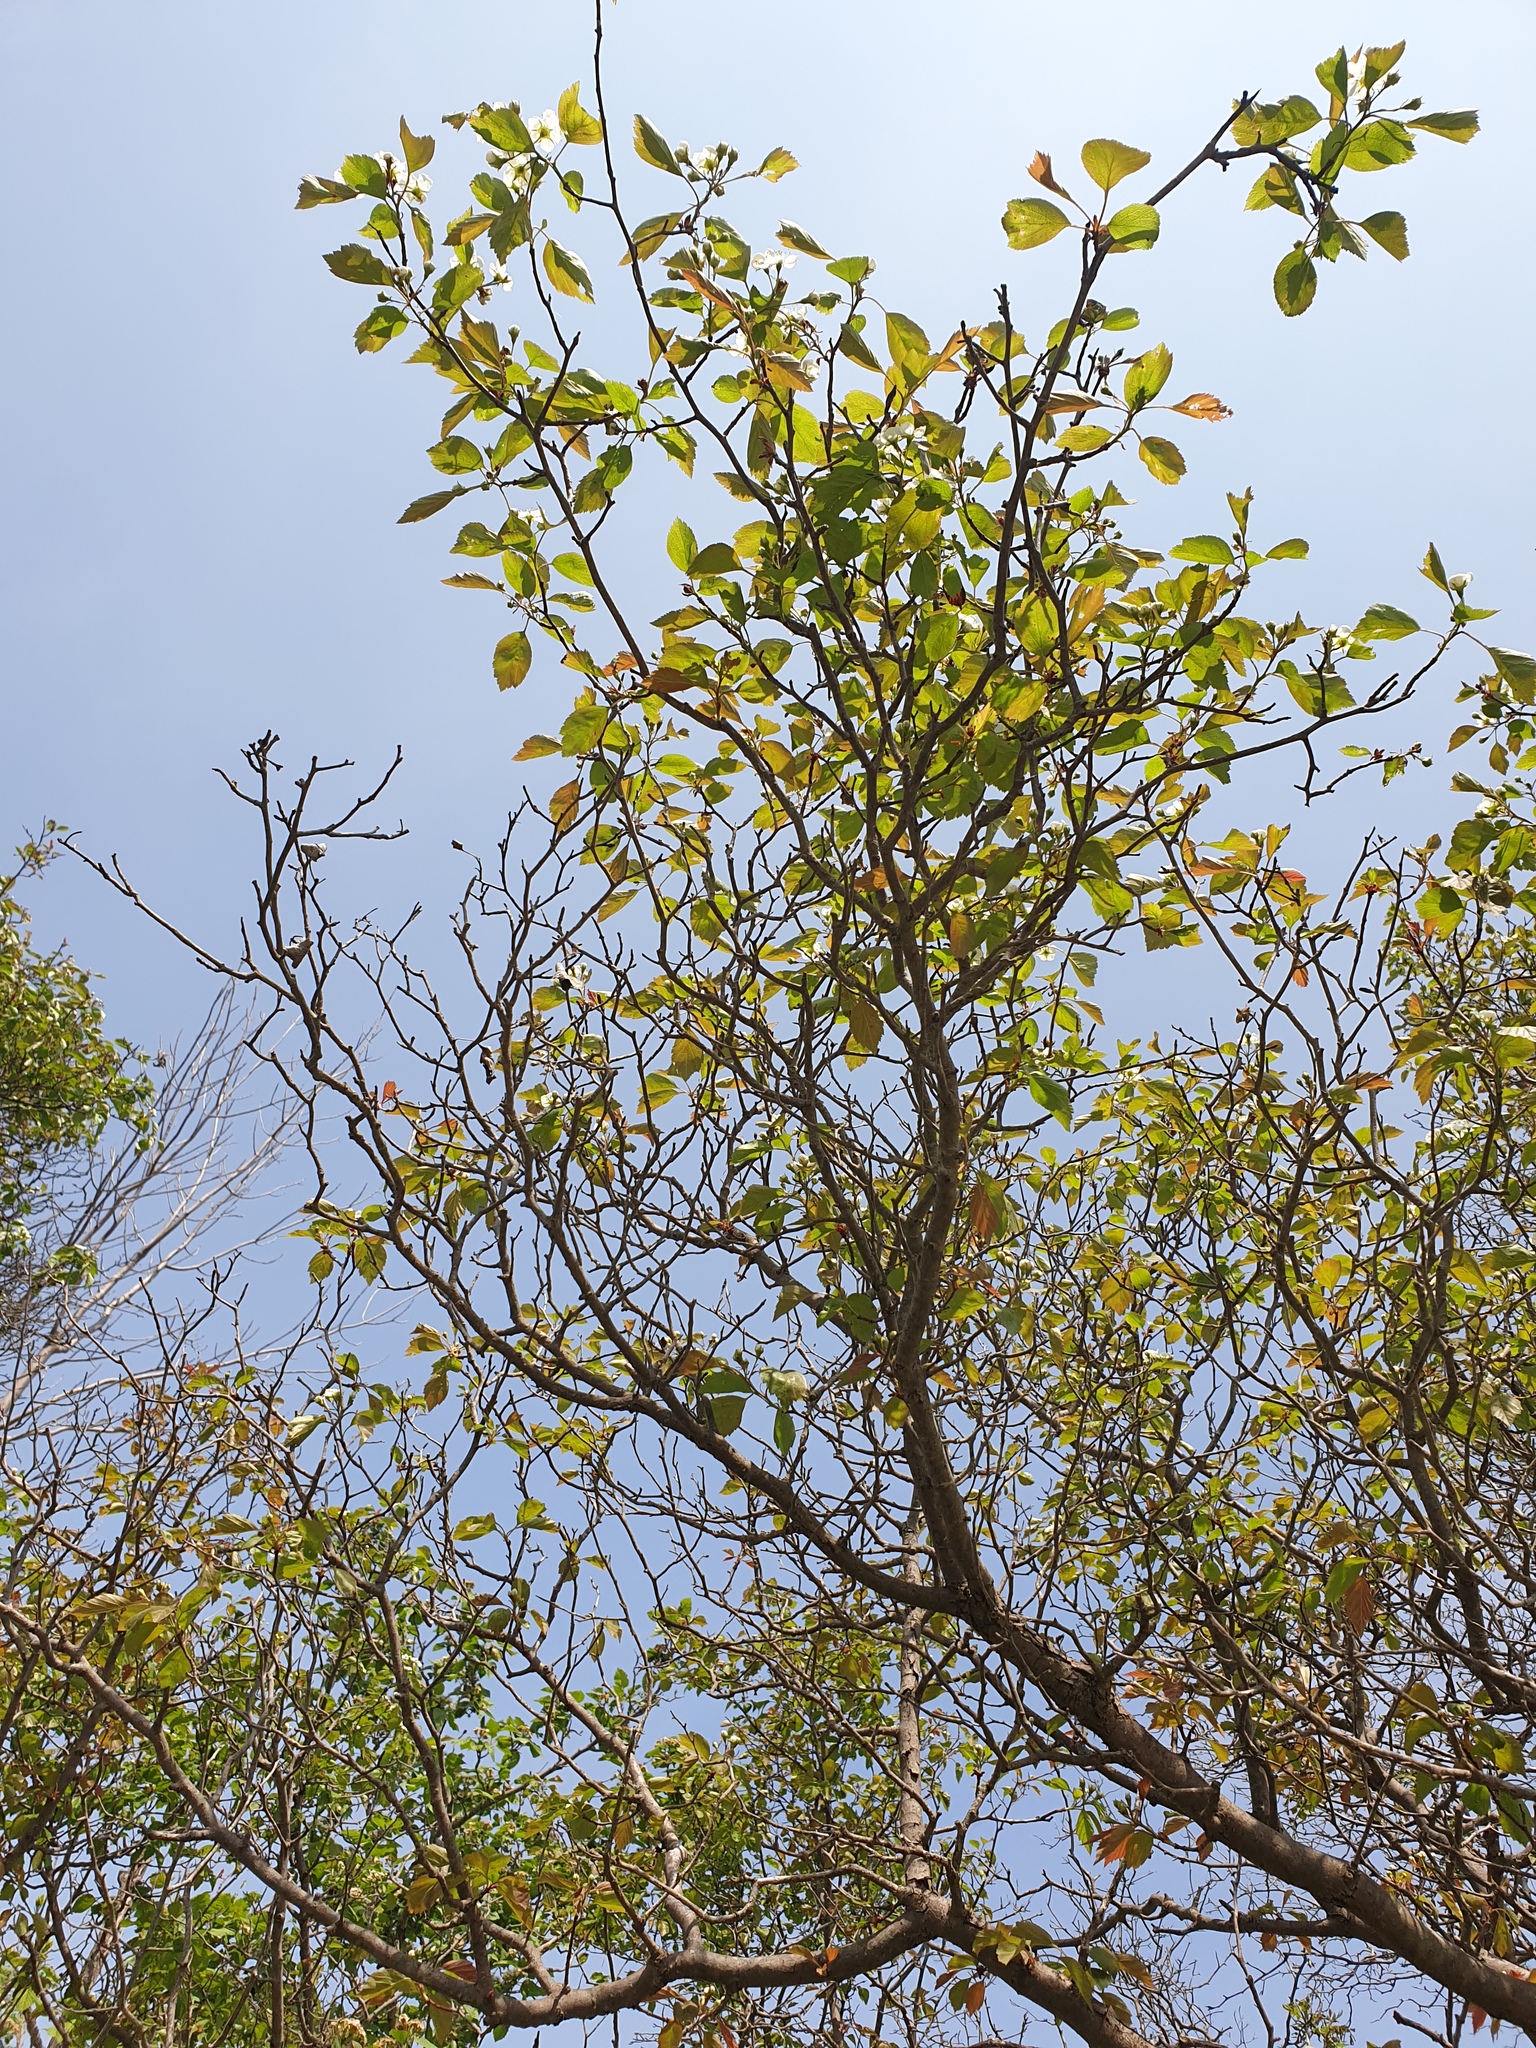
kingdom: Plantae
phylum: Tracheophyta
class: Magnoliopsida
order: Rosales
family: Rosaceae
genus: Crataegus
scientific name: Crataegus compacta
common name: Clustered hawthorn
